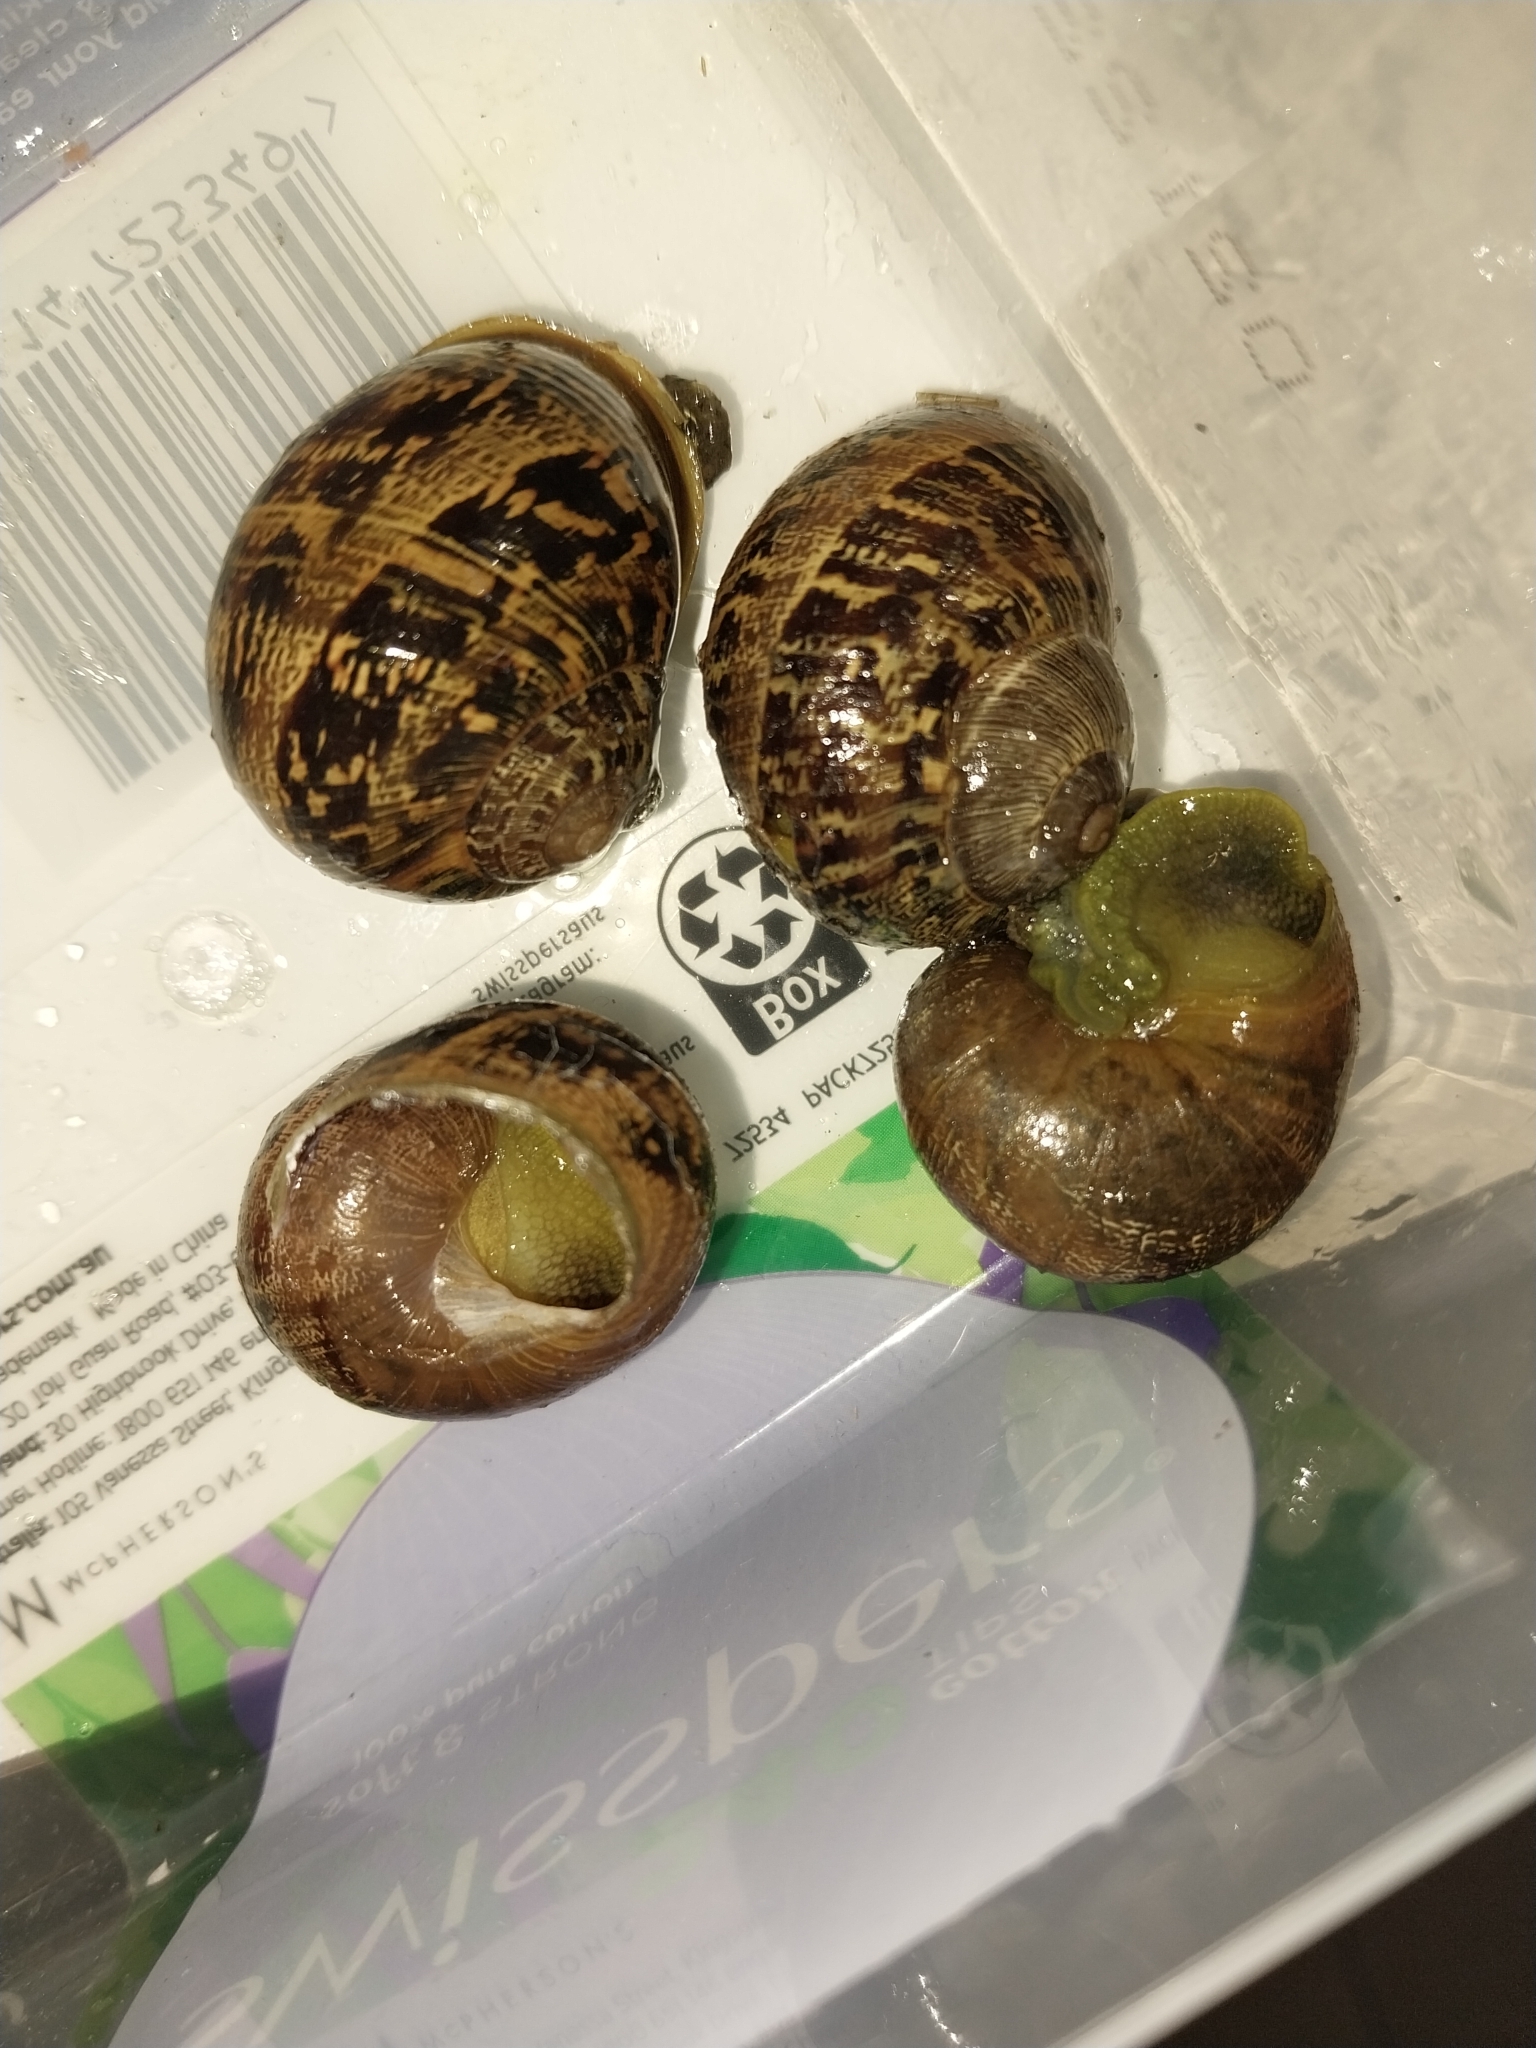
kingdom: Animalia
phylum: Mollusca
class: Gastropoda
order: Stylommatophora
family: Helicidae
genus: Cornu
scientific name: Cornu aspersum
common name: Brown garden snail
